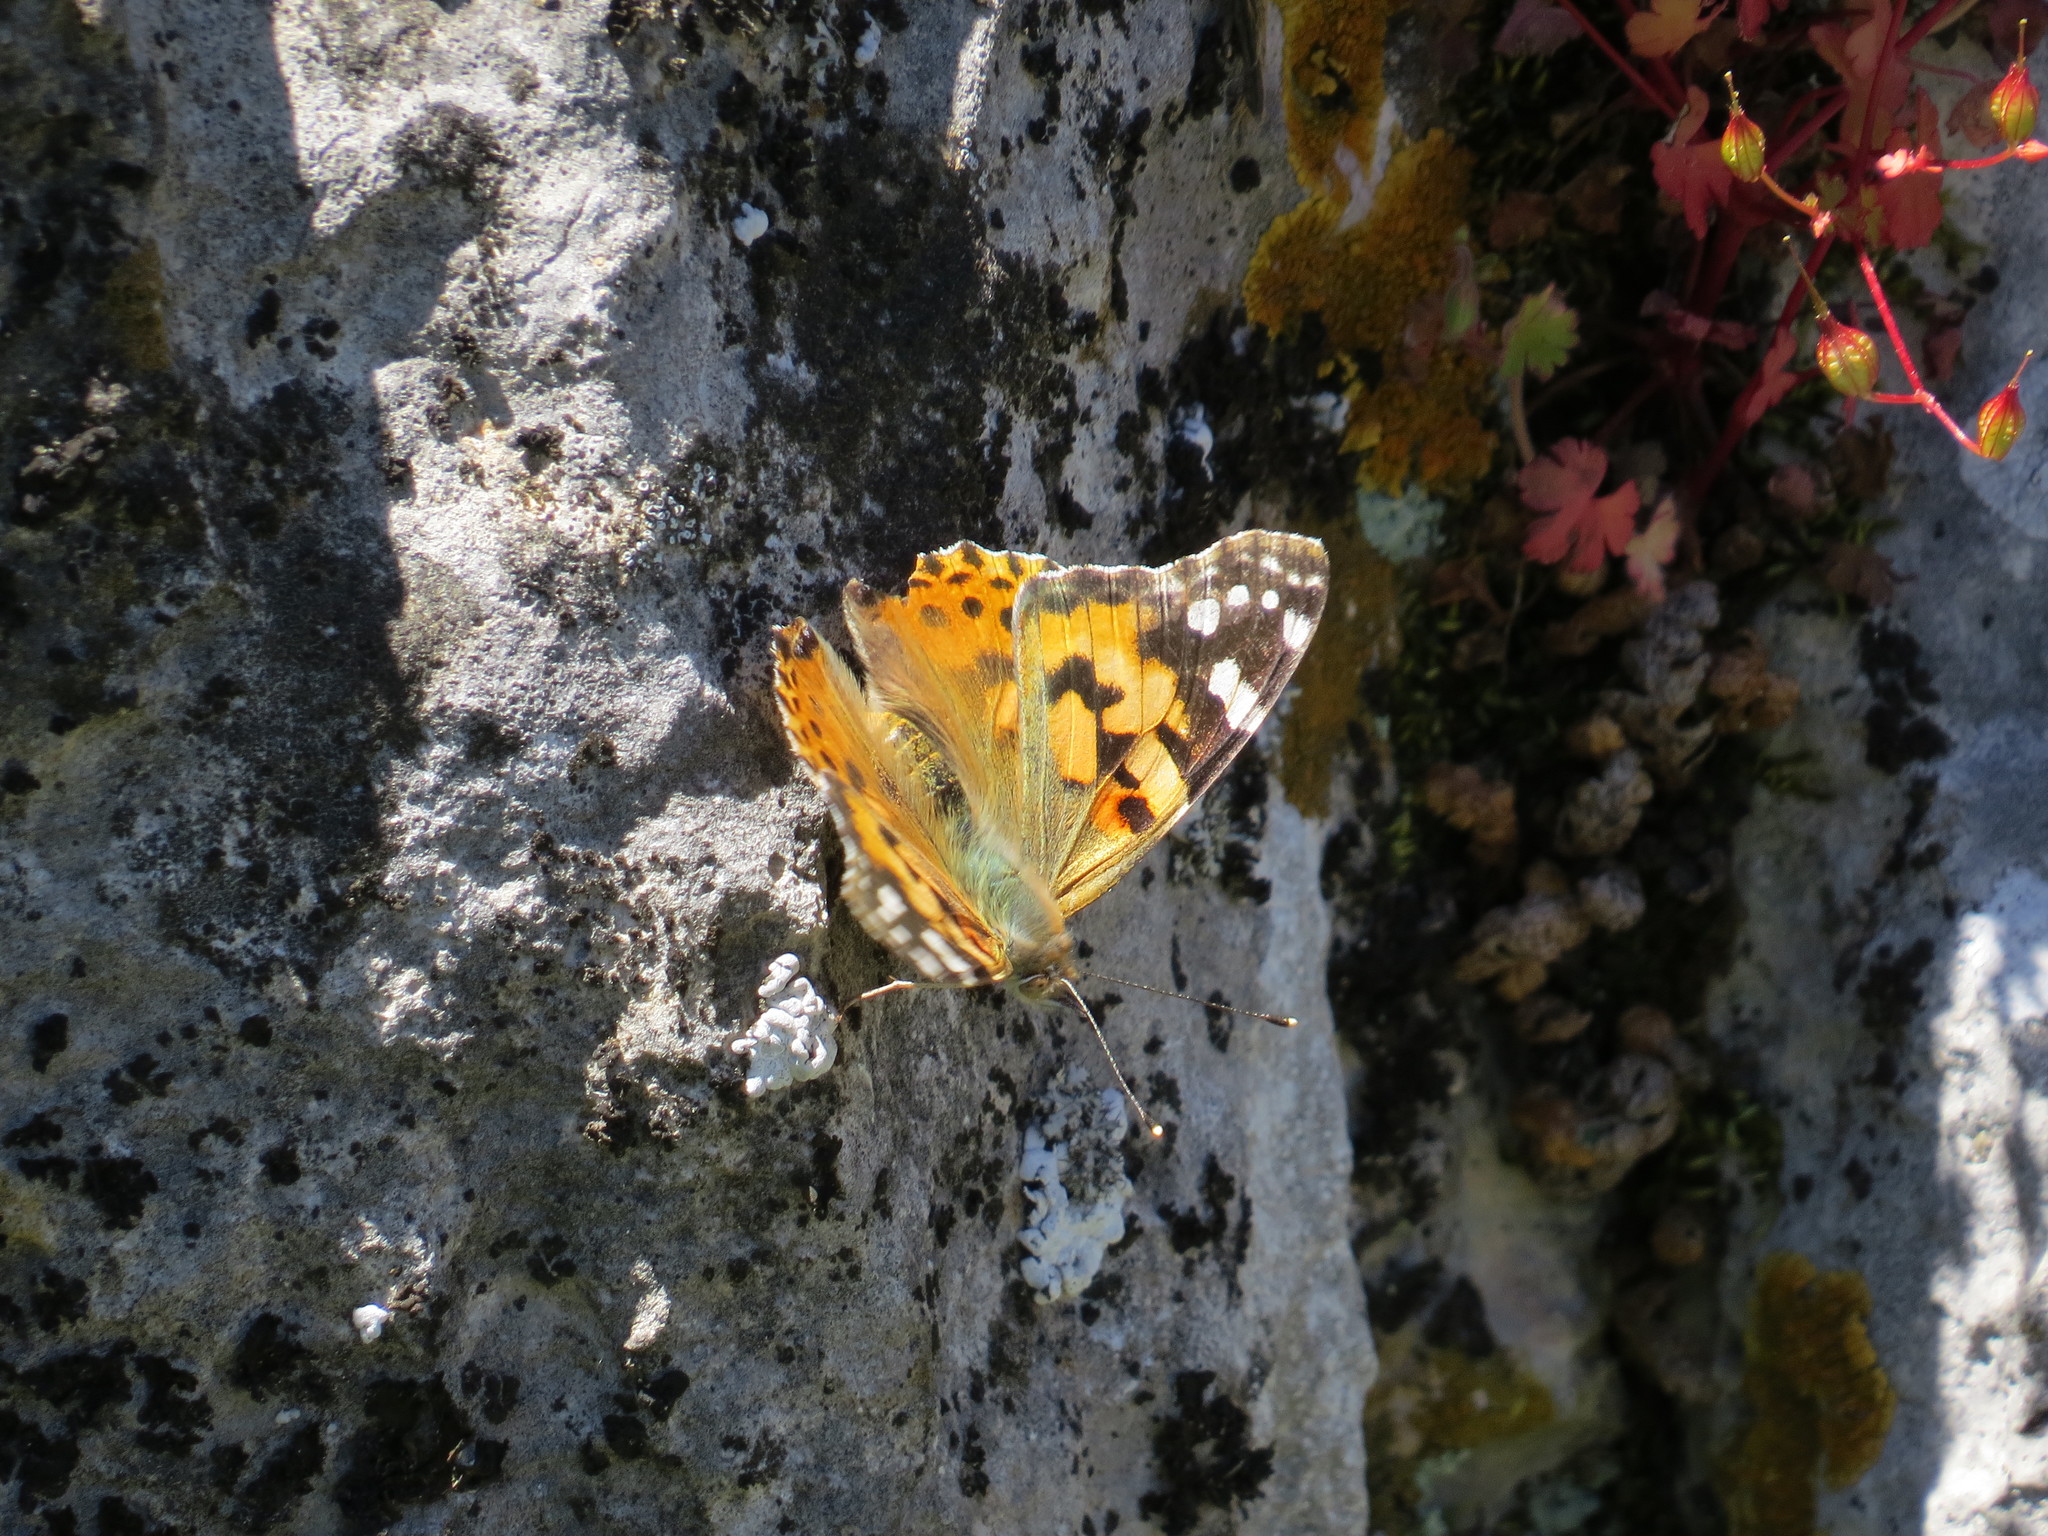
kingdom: Animalia
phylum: Arthropoda
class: Insecta
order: Lepidoptera
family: Nymphalidae
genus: Vanessa
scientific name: Vanessa cardui
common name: Painted lady
